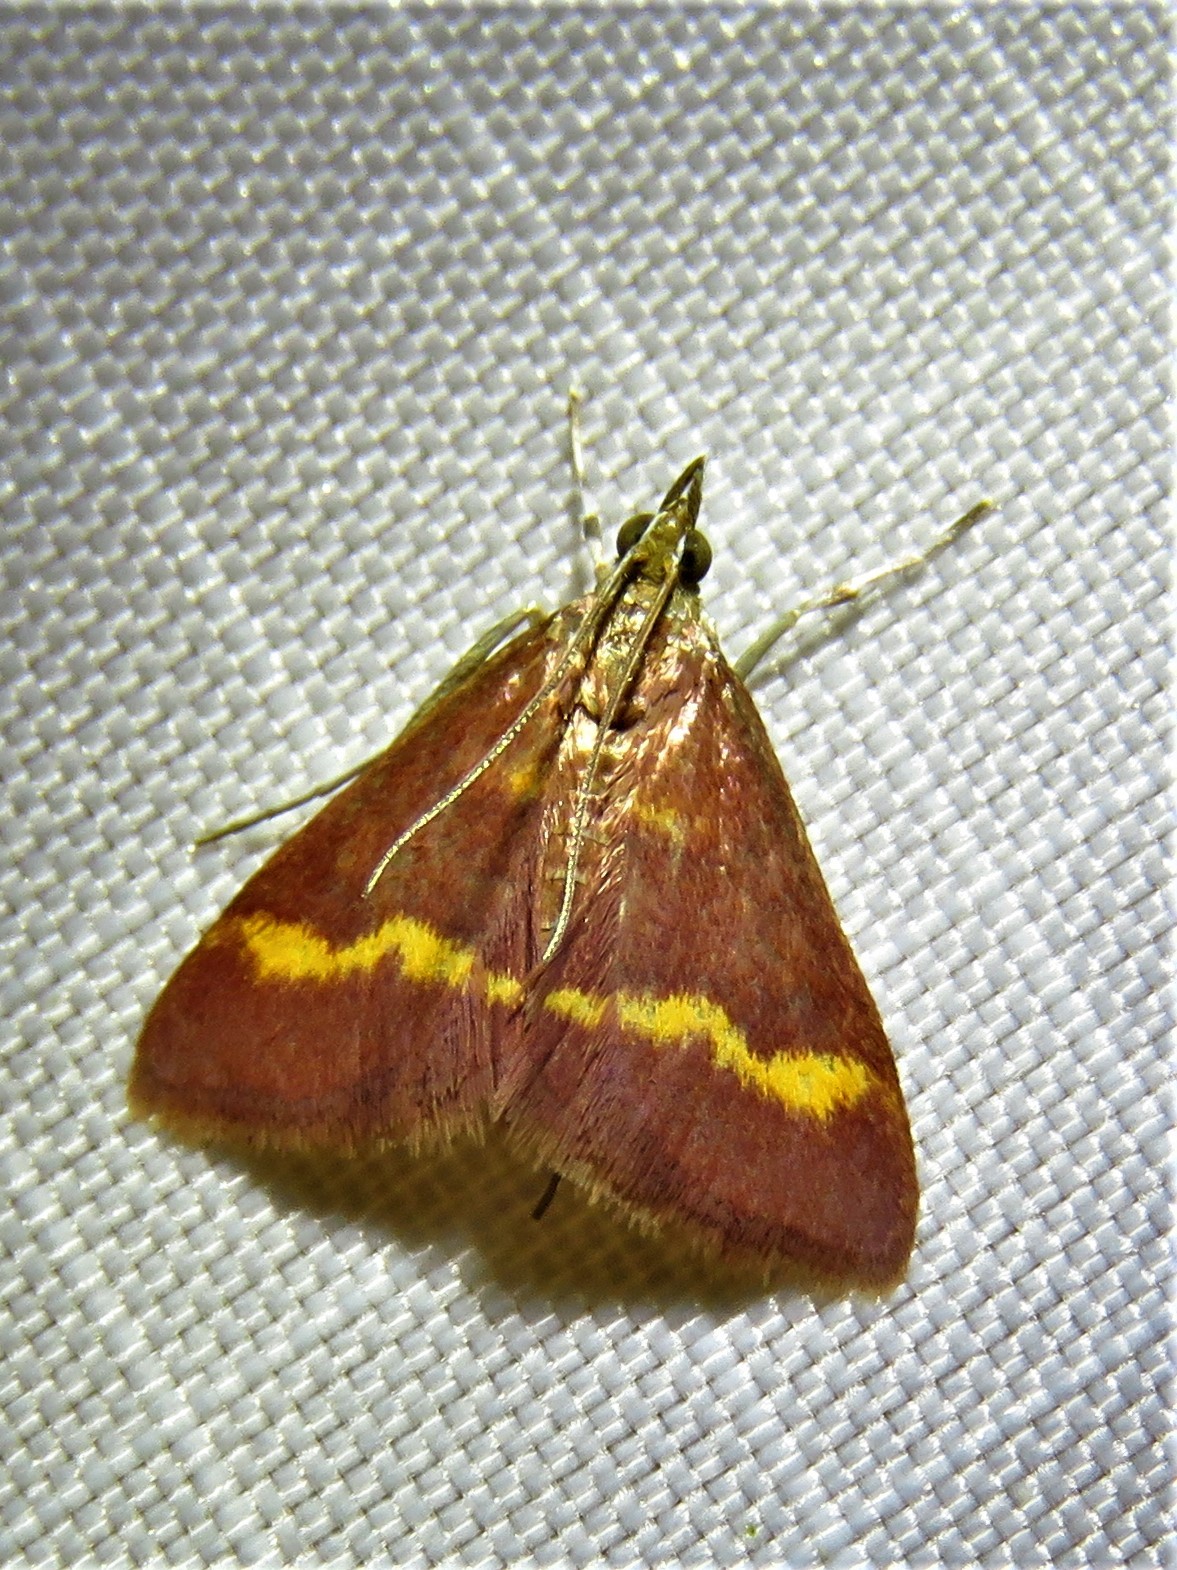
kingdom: Animalia
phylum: Arthropoda
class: Insecta
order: Lepidoptera
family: Crambidae
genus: Pyrausta
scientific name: Pyrausta pseuderosnealis
